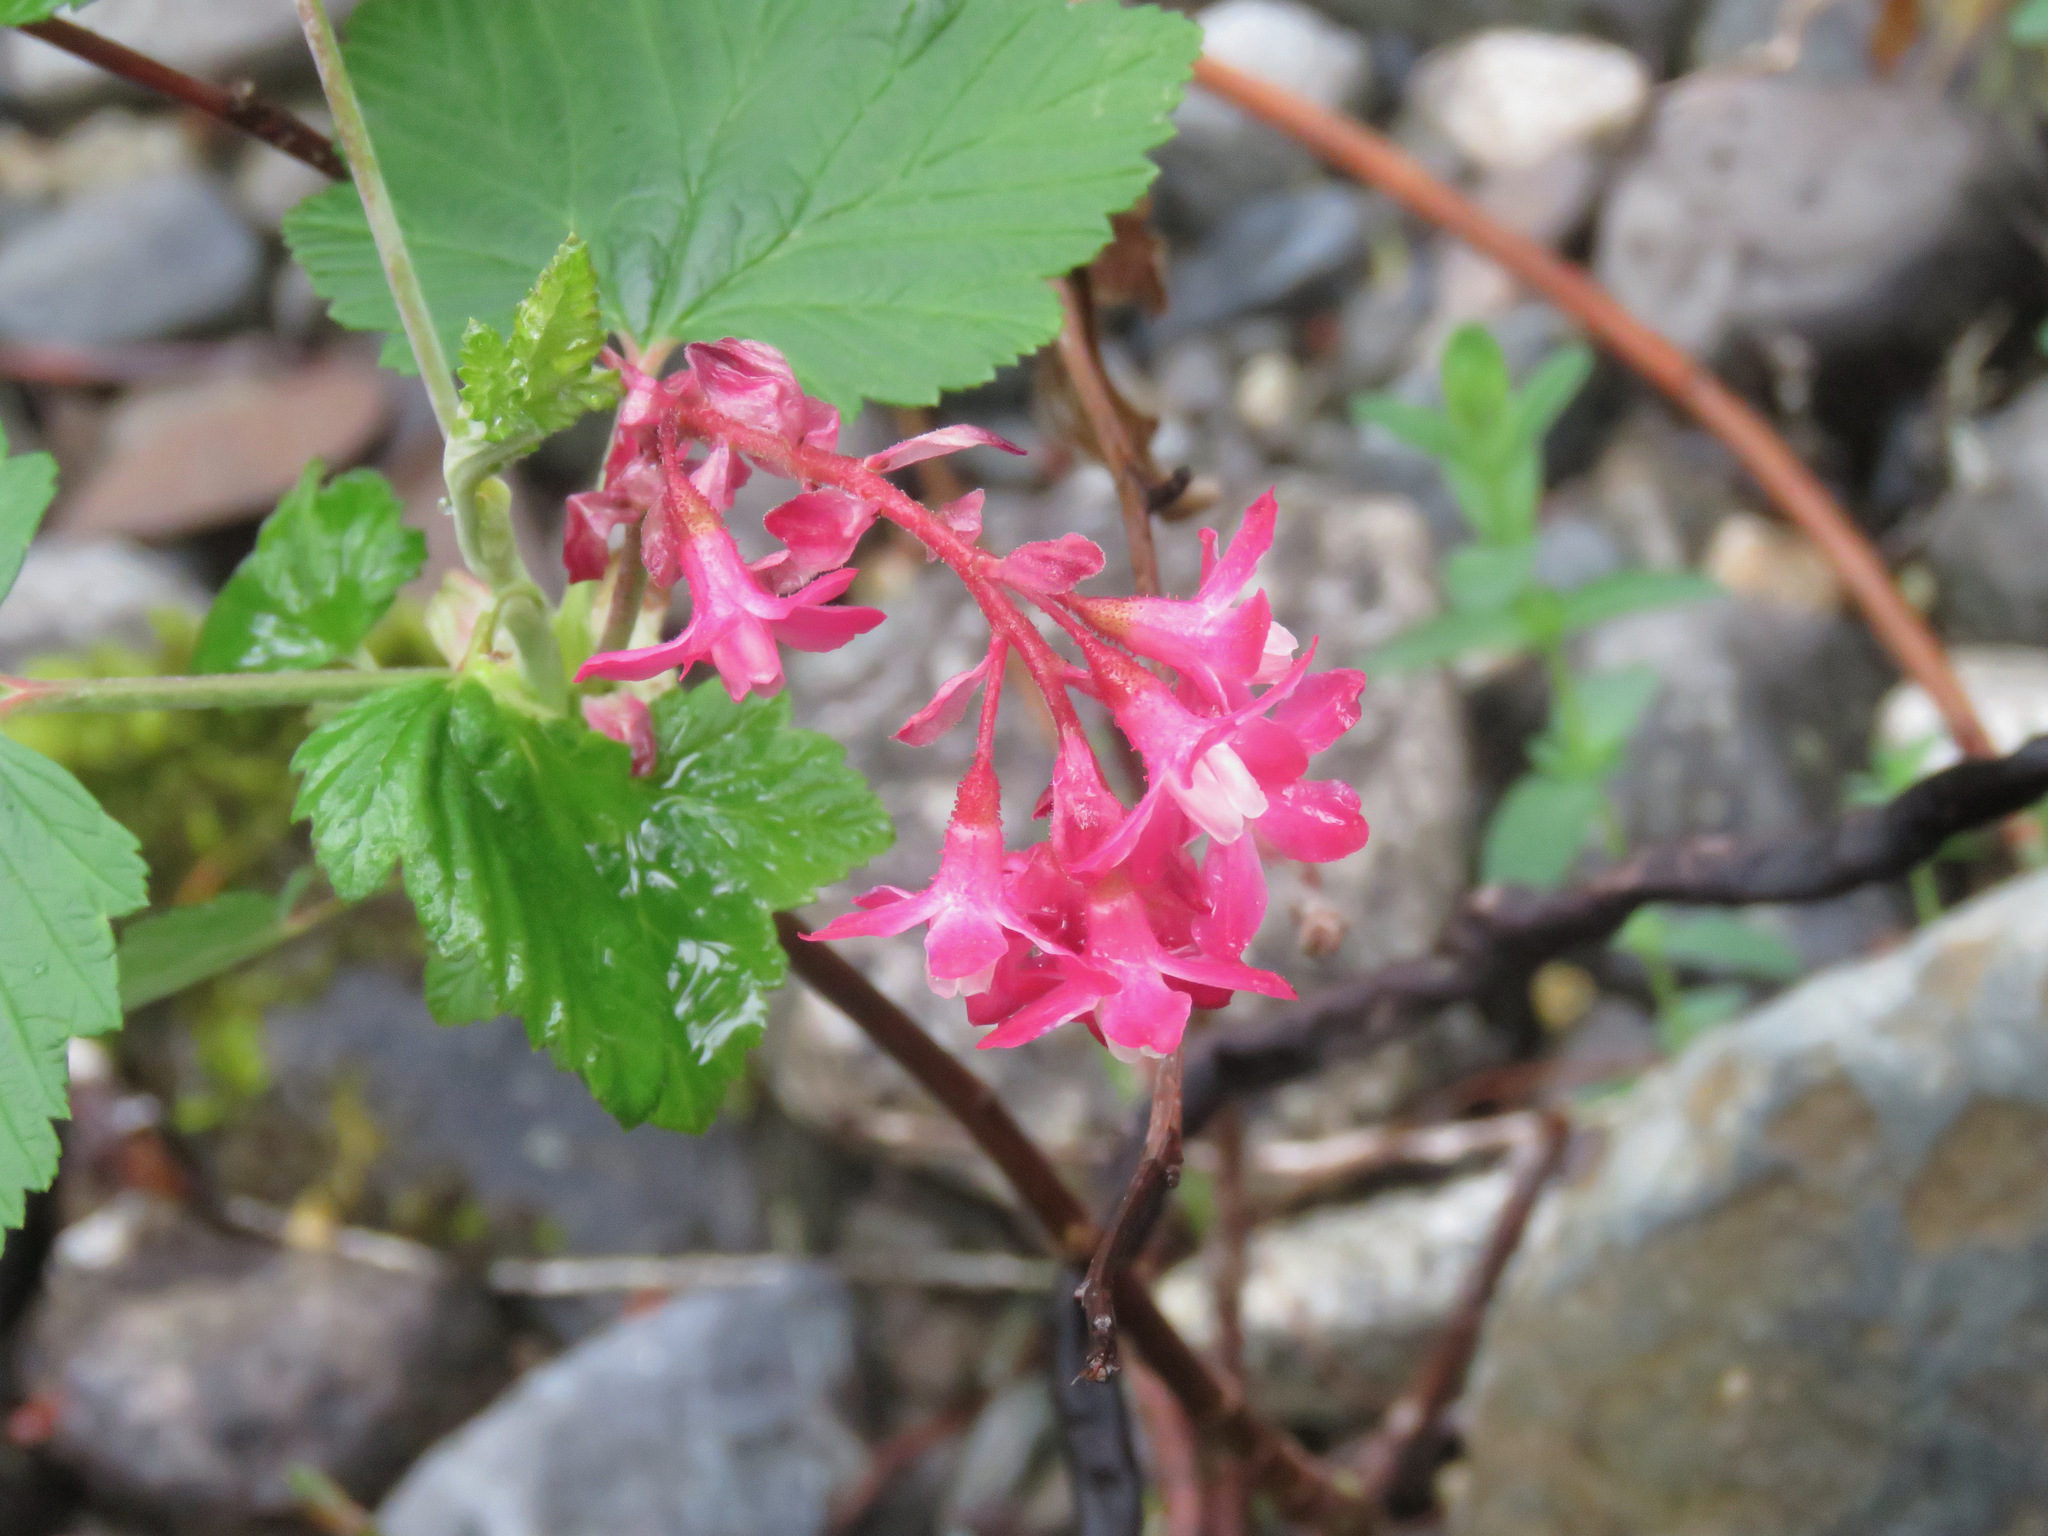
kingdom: Plantae
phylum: Tracheophyta
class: Magnoliopsida
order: Saxifragales
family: Grossulariaceae
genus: Ribes
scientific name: Ribes sanguineum
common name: Flowering currant
